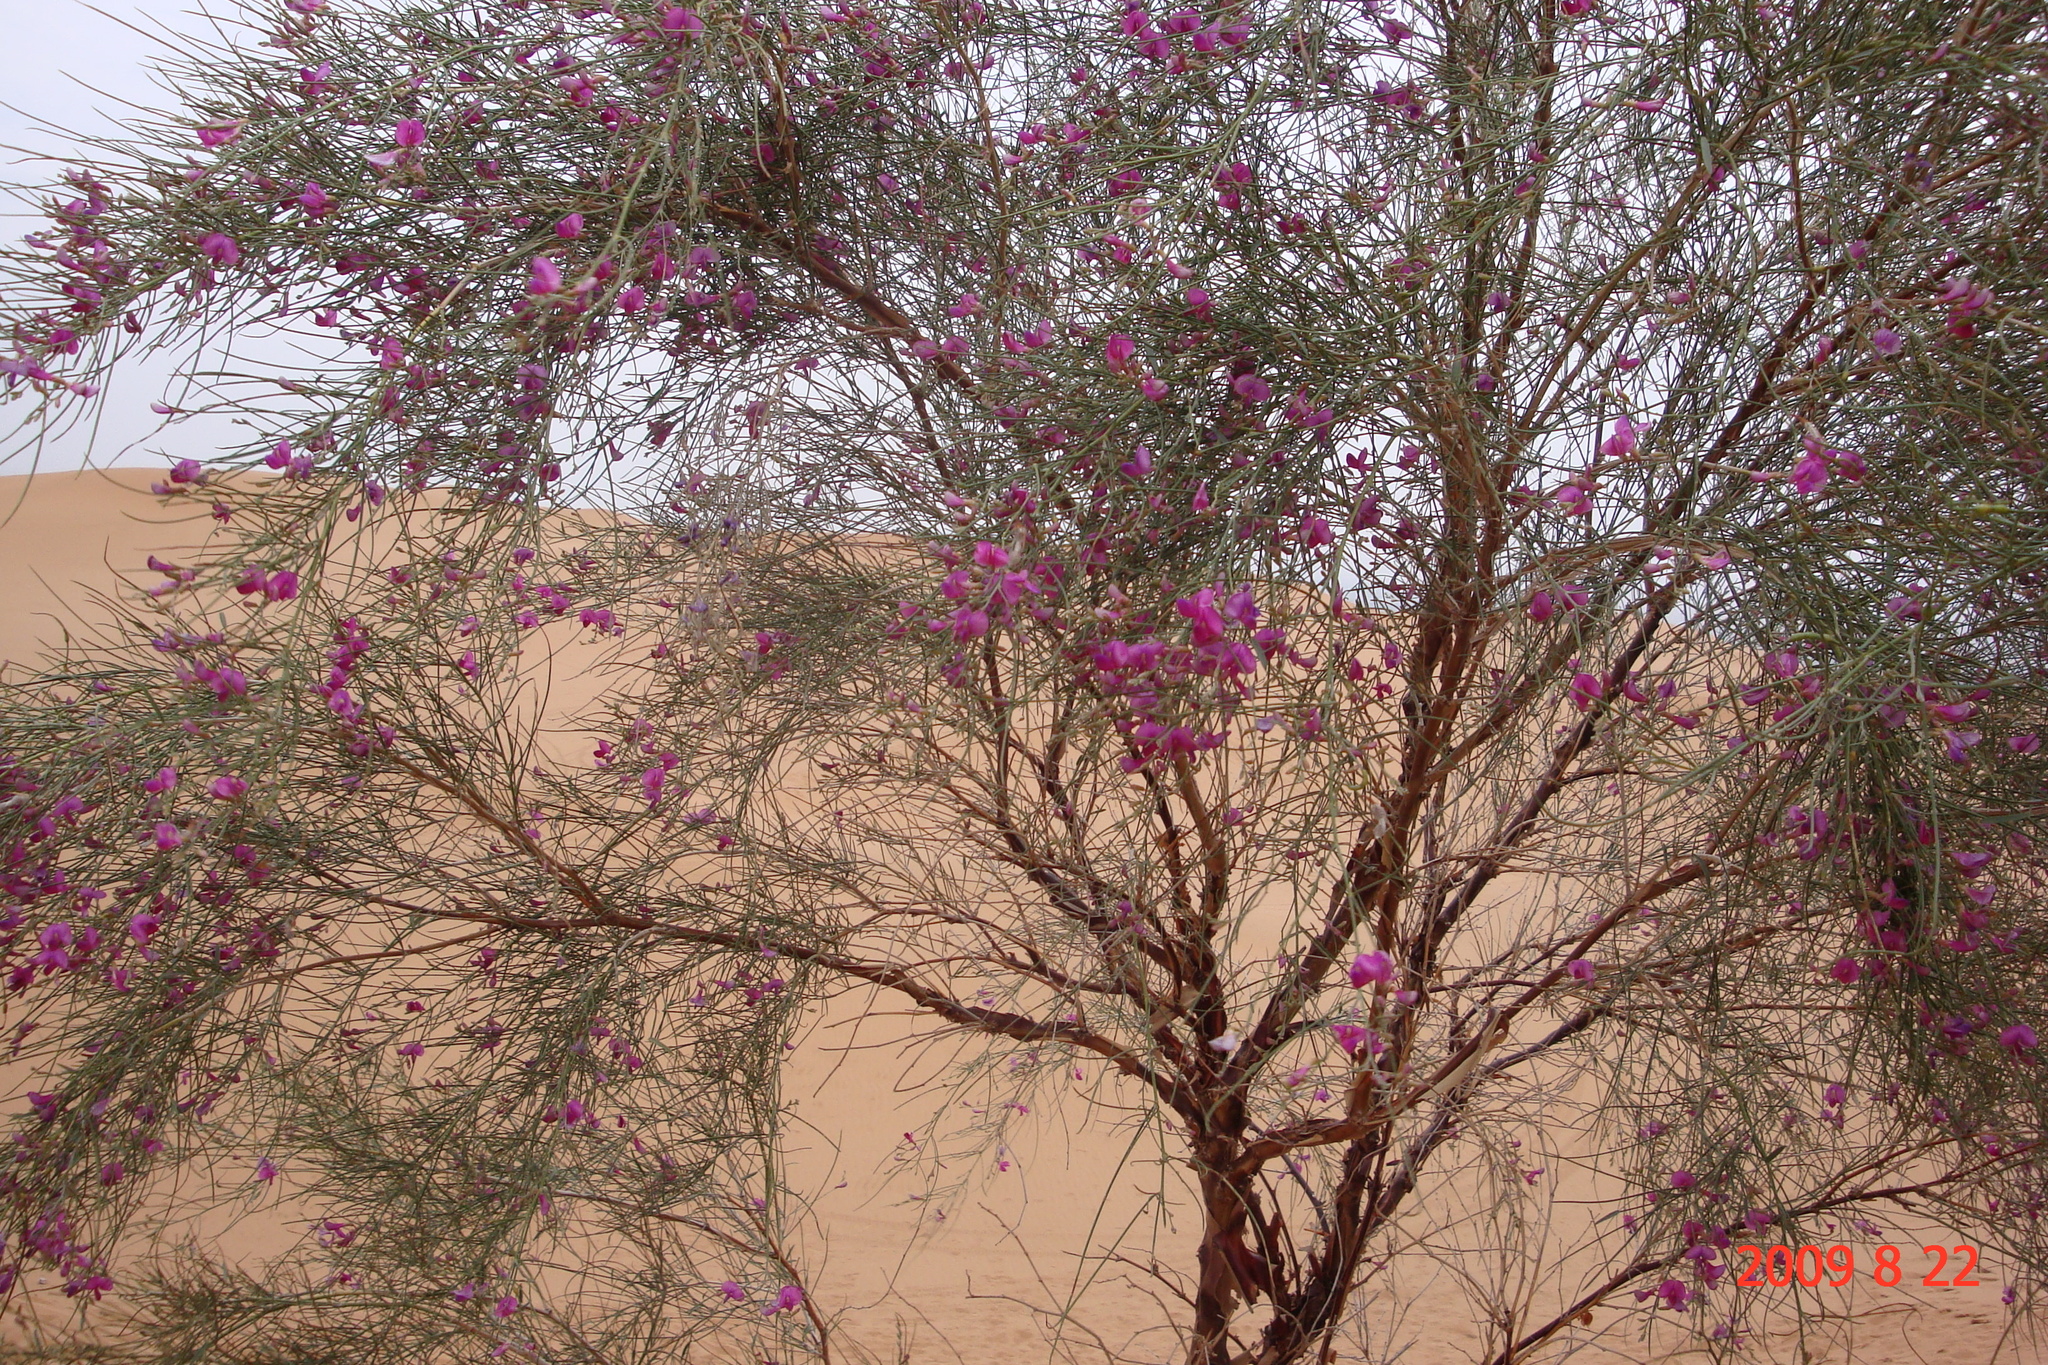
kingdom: Plantae
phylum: Tracheophyta
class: Magnoliopsida
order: Fabales
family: Fabaceae
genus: Corethrodendron
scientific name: Corethrodendron scoparium
